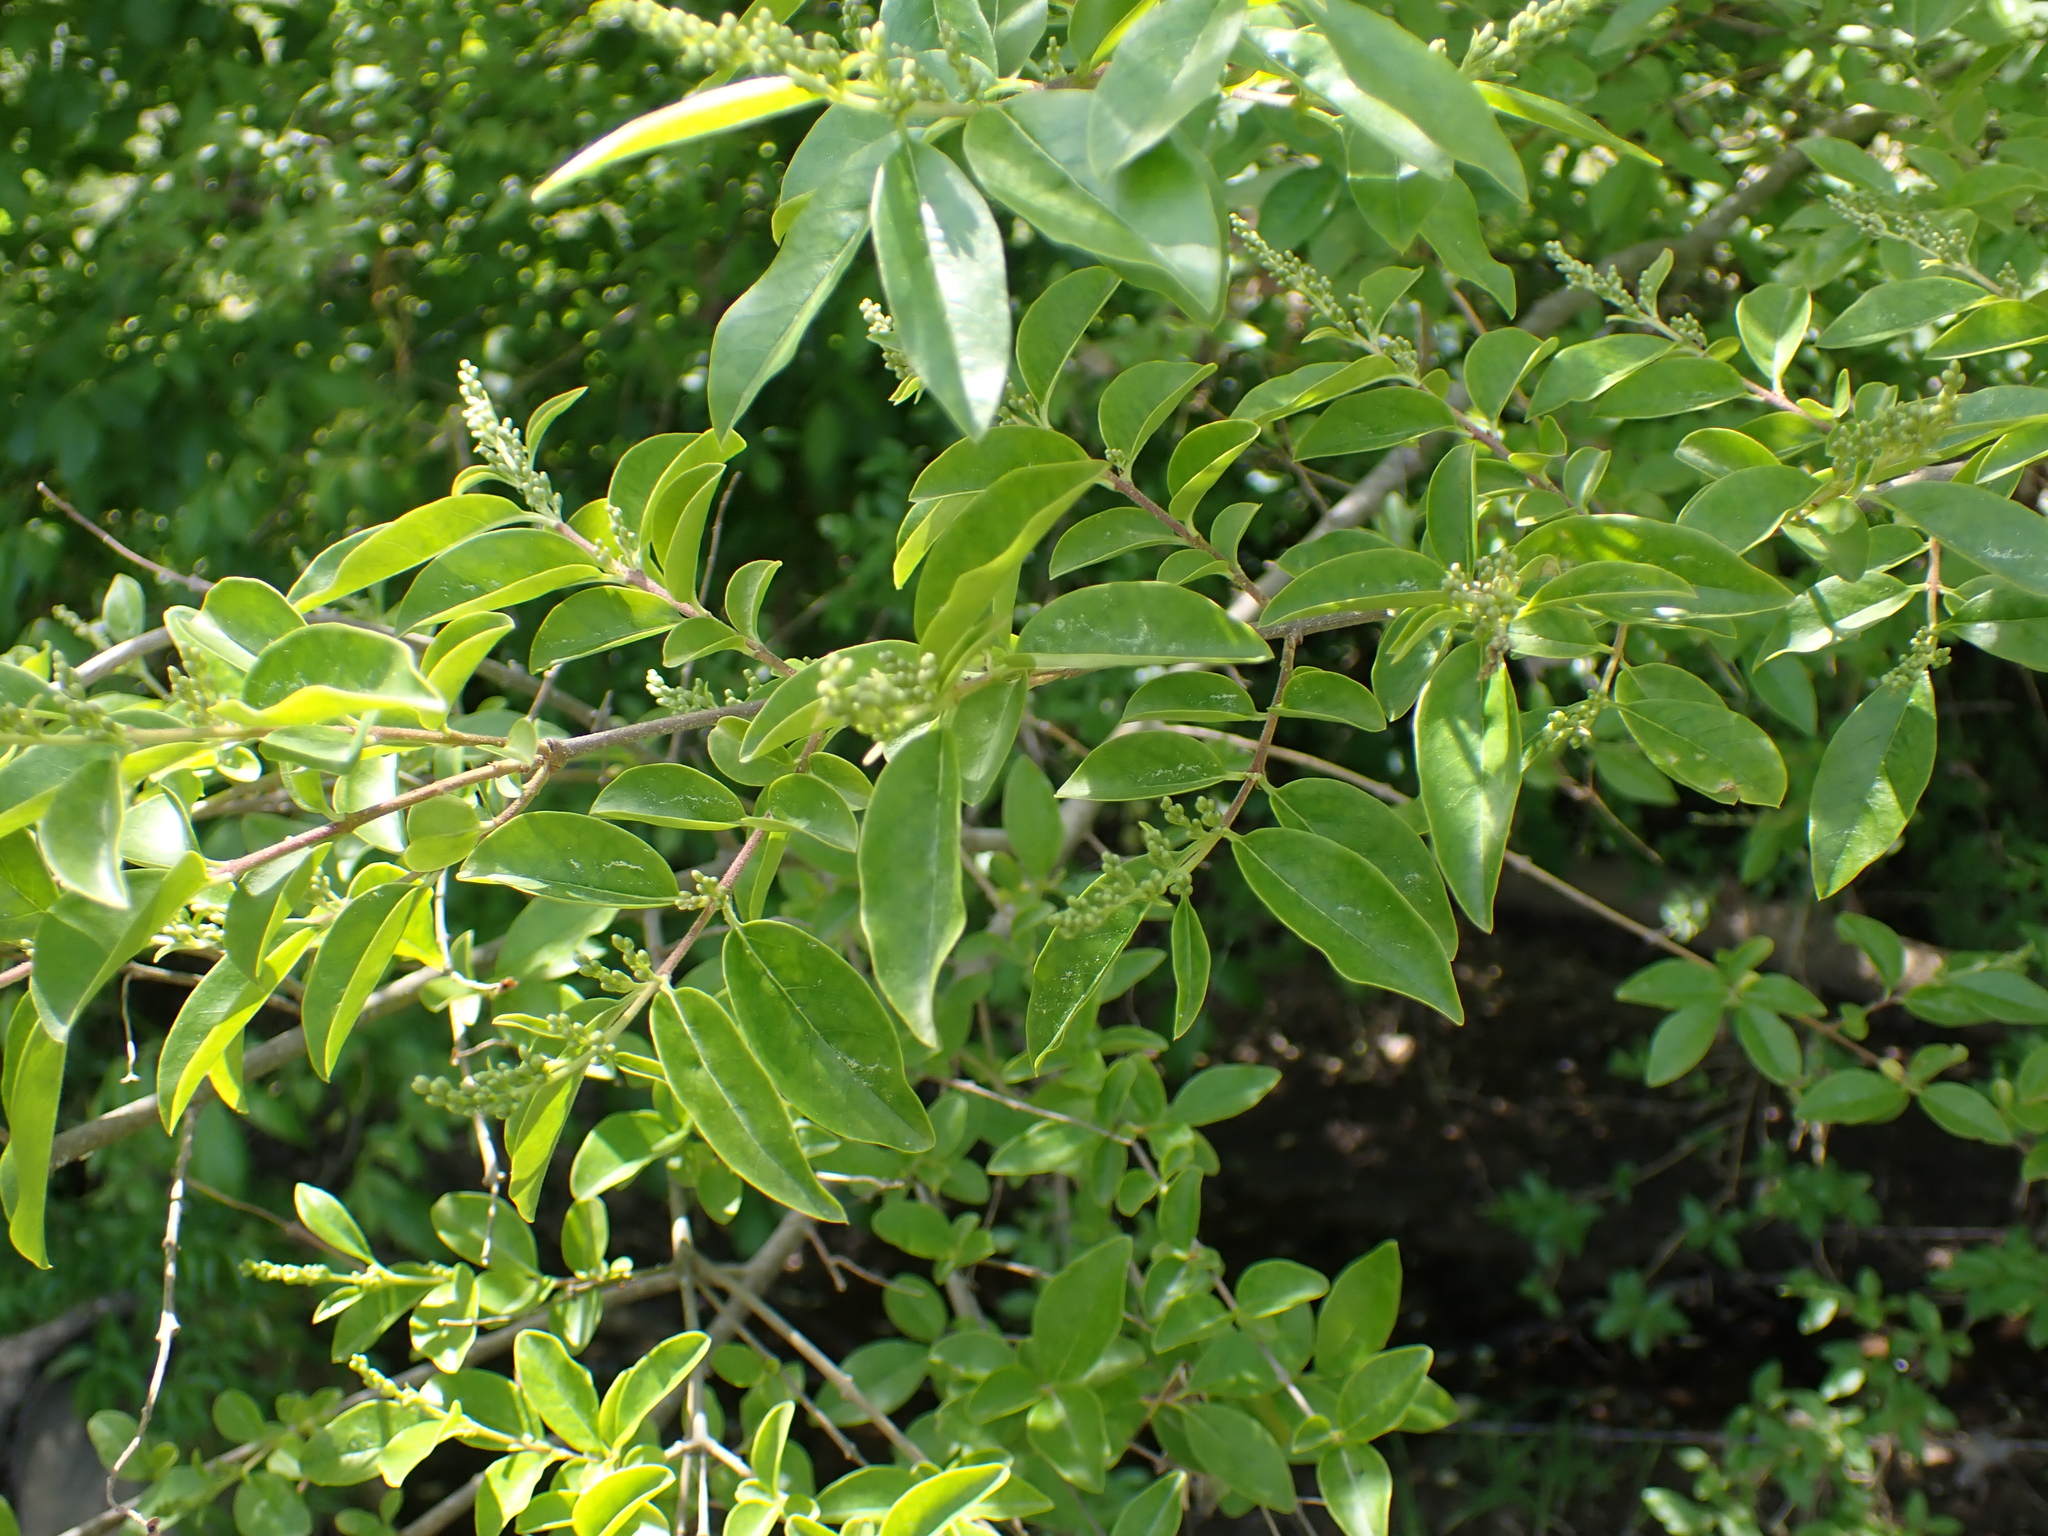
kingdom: Plantae
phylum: Tracheophyta
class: Magnoliopsida
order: Lamiales
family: Oleaceae
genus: Ligustrum
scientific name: Ligustrum sinense
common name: Chinese privet
